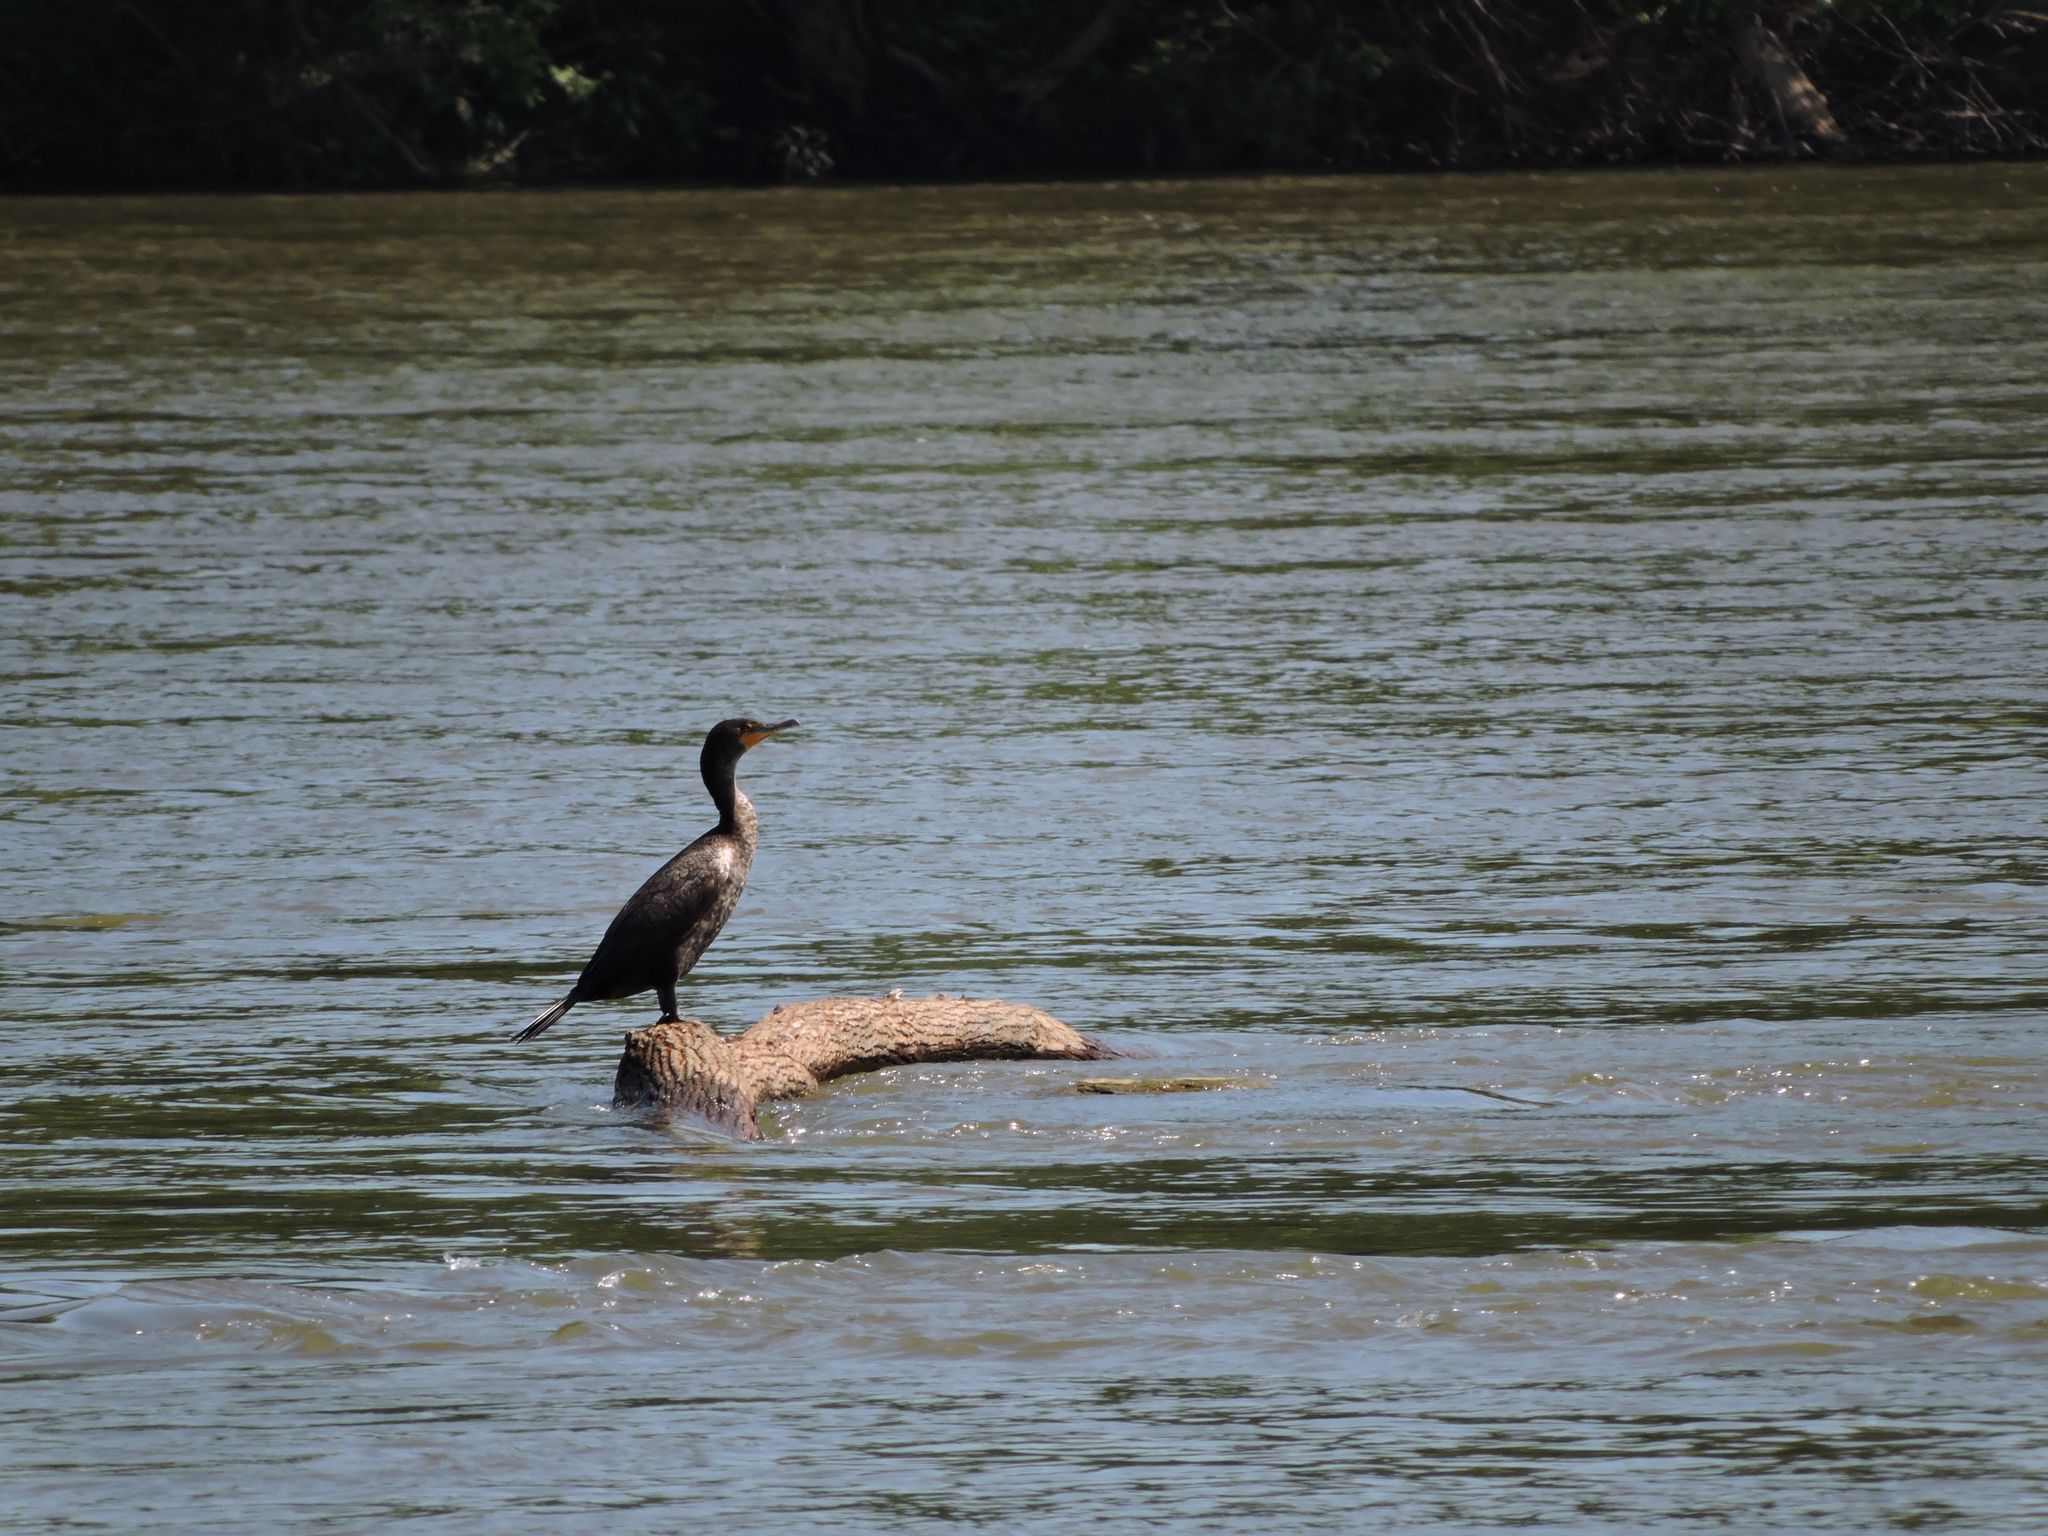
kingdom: Animalia
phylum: Chordata
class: Aves
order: Suliformes
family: Phalacrocoracidae
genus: Phalacrocorax
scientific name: Phalacrocorax auritus
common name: Double-crested cormorant
